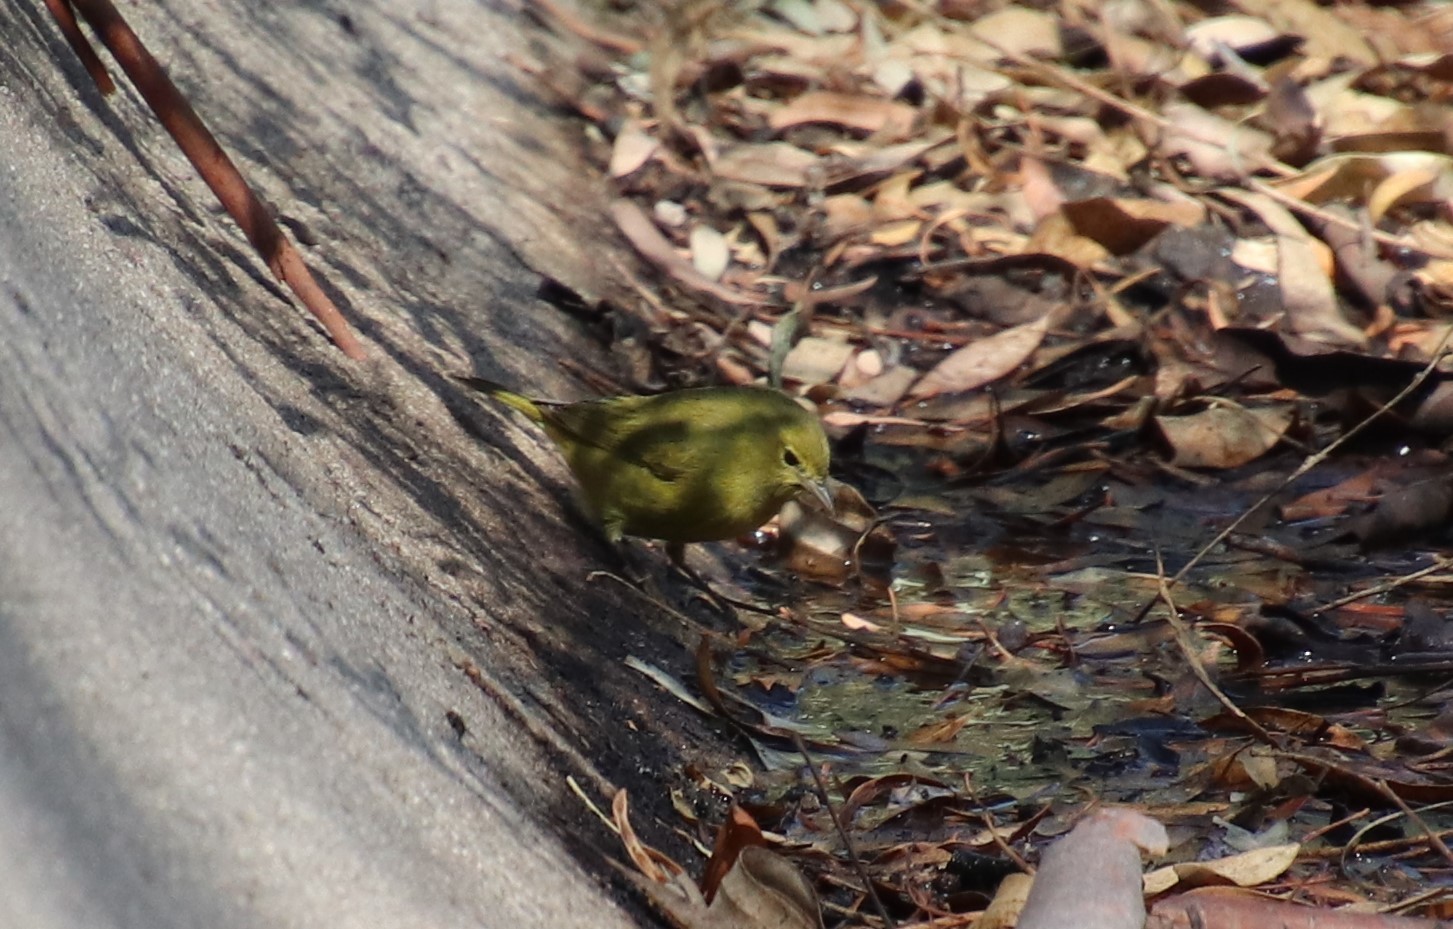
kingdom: Animalia
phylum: Chordata
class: Aves
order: Passeriformes
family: Parulidae
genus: Leiothlypis
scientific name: Leiothlypis celata
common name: Orange-crowned warbler
